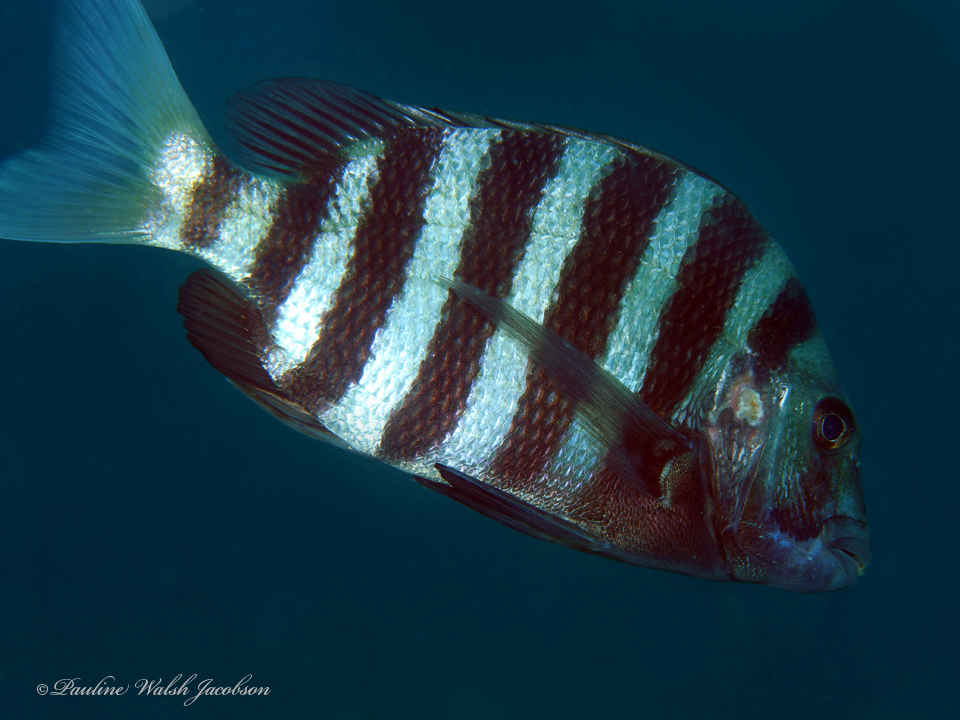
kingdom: Animalia
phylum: Chordata
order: Perciformes
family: Sparidae
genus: Archosargus
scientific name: Archosargus probatocephalus
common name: Sheepshead
